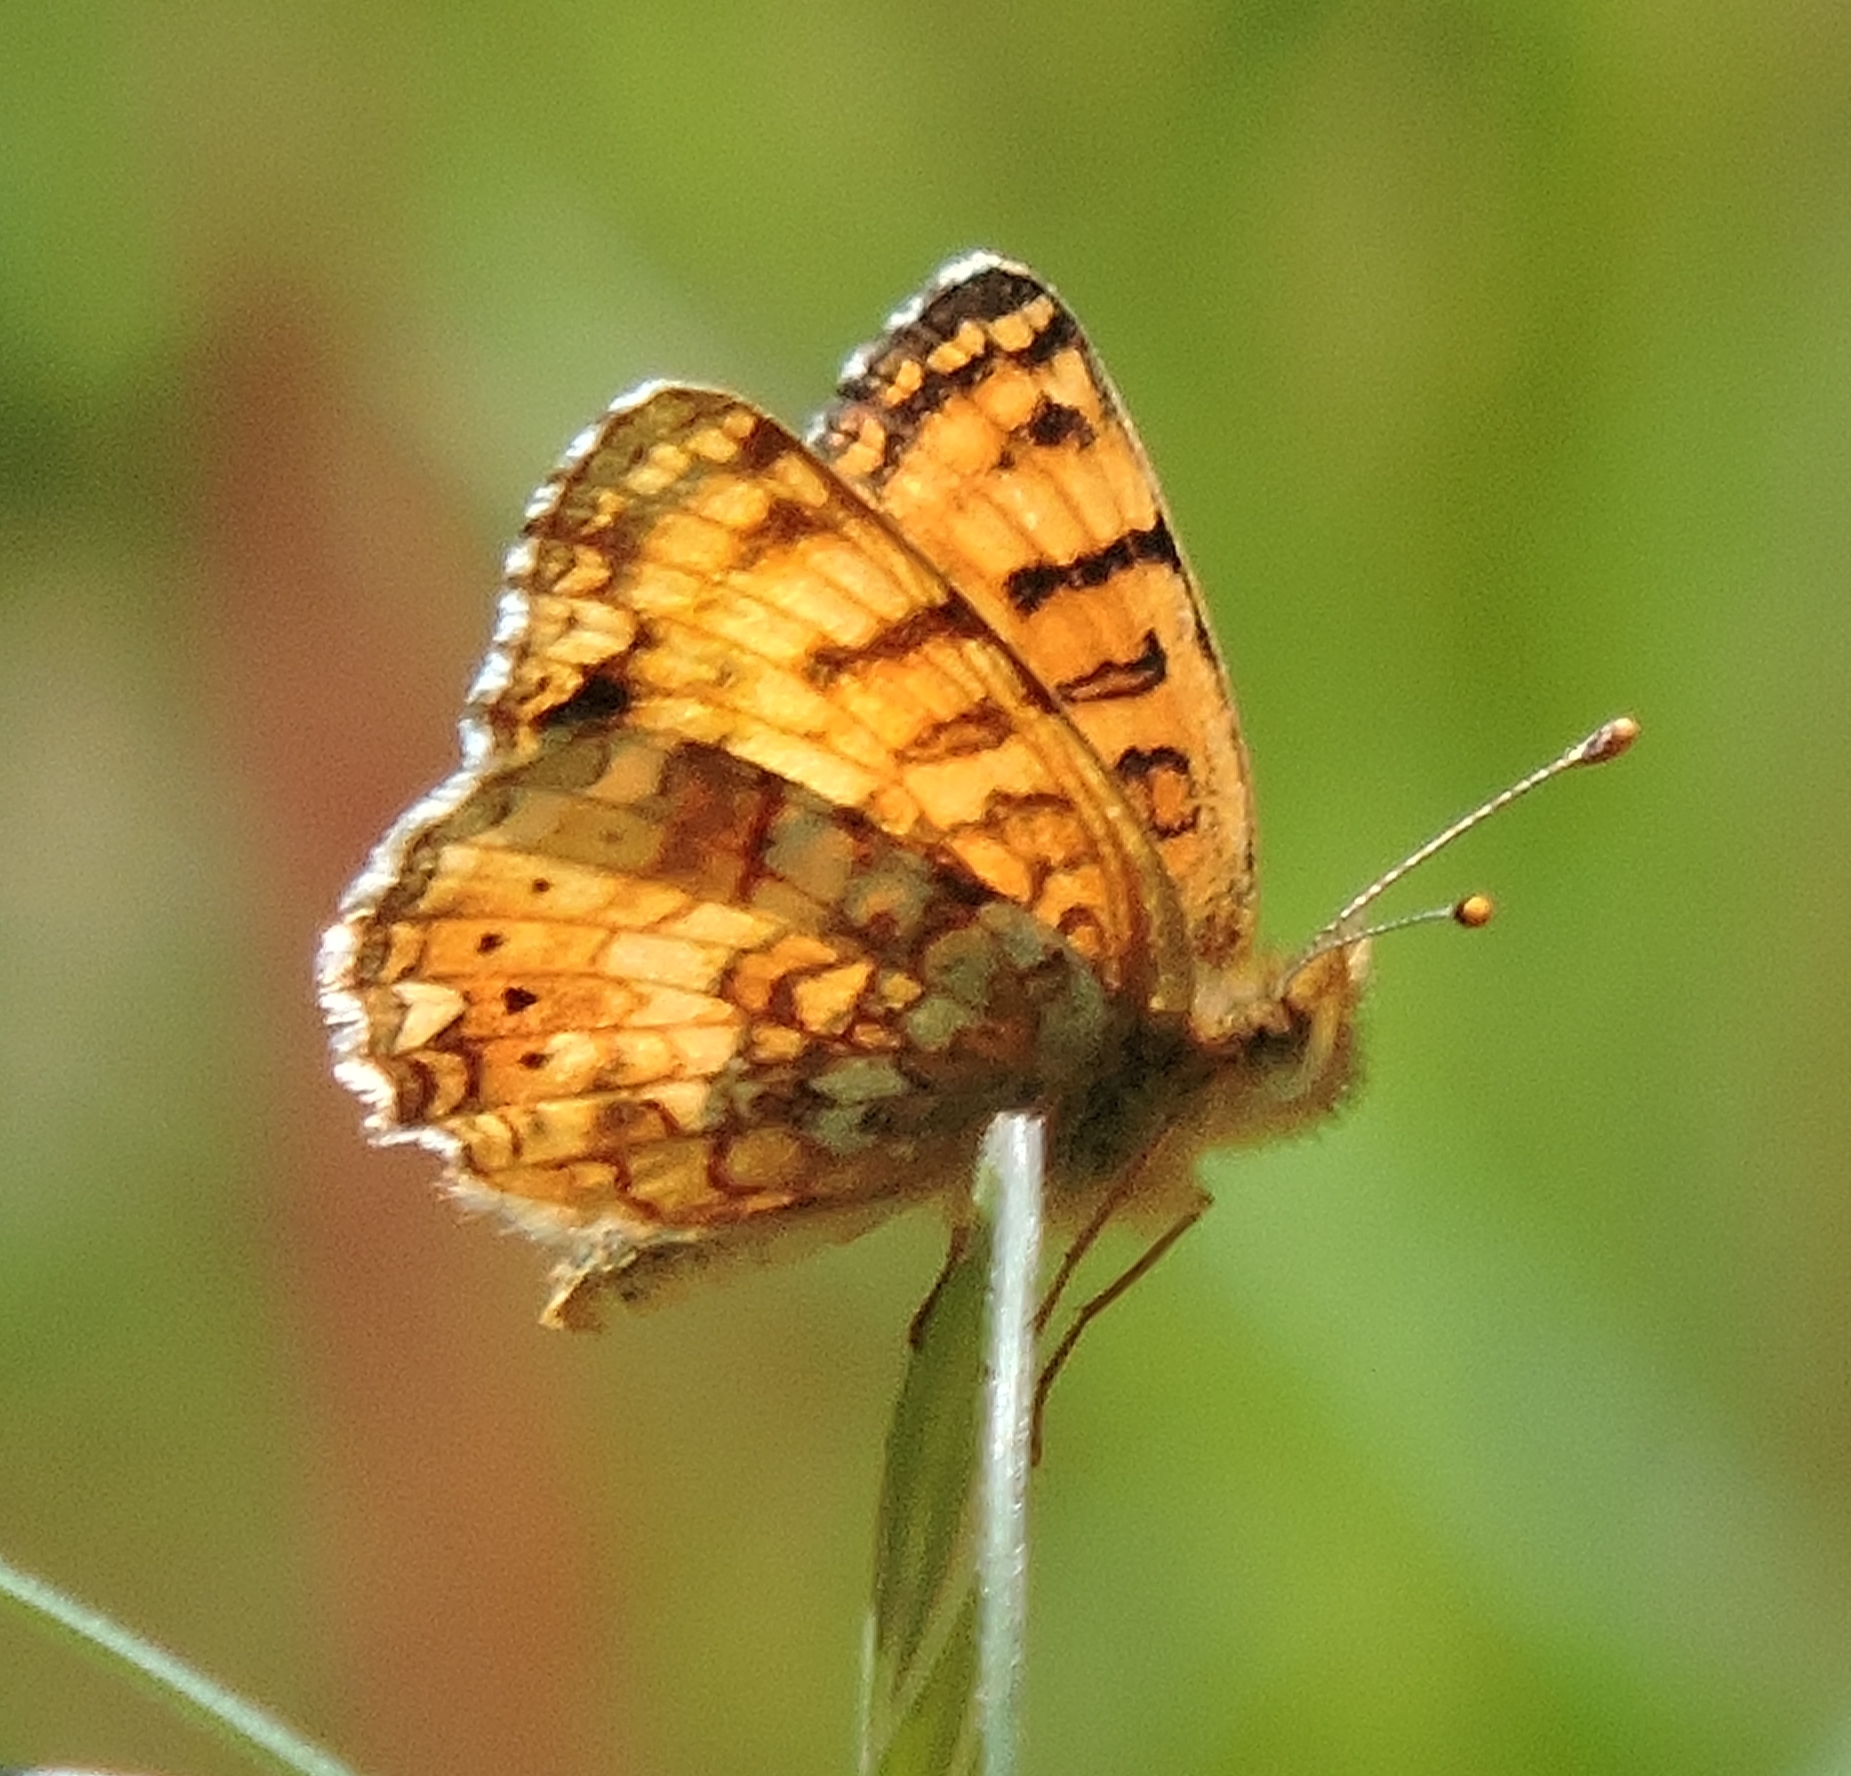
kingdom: Animalia
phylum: Arthropoda
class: Insecta
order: Lepidoptera
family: Nymphalidae
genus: Eresia
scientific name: Eresia aveyrona
